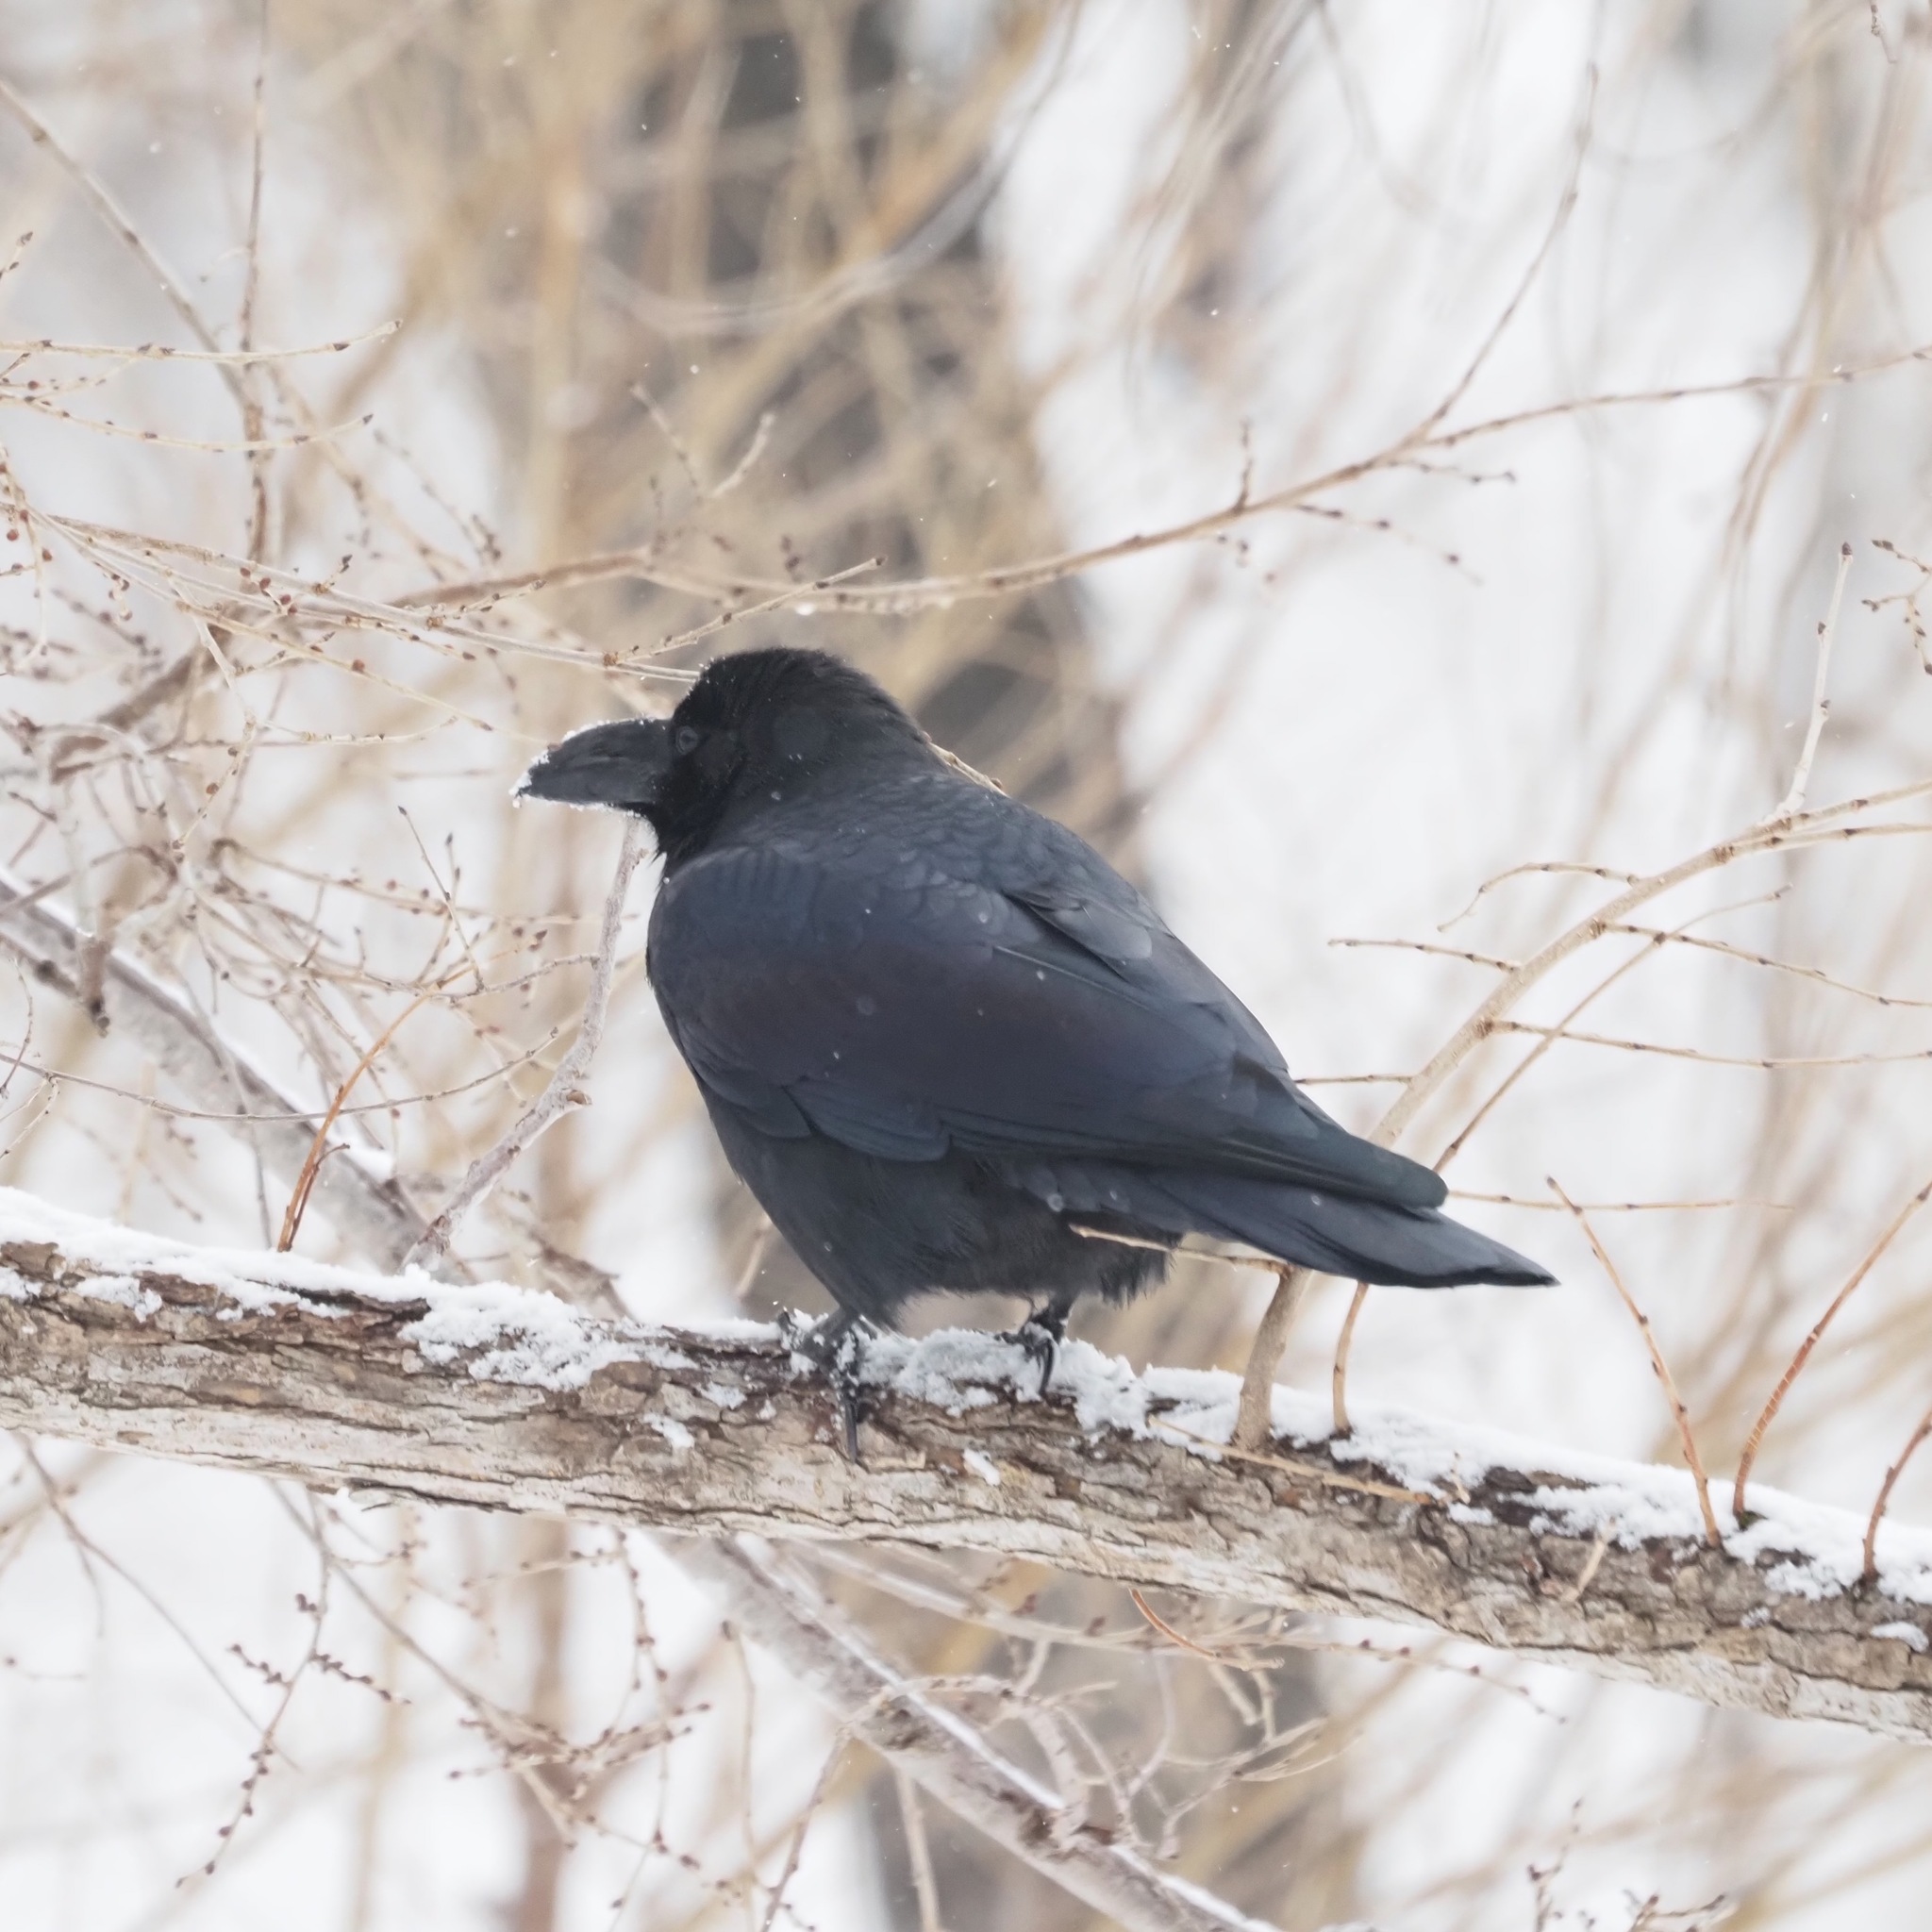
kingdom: Animalia
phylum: Chordata
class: Aves
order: Passeriformes
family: Corvidae
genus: Corvus
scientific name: Corvus macrorhynchos
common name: Large-billed crow
